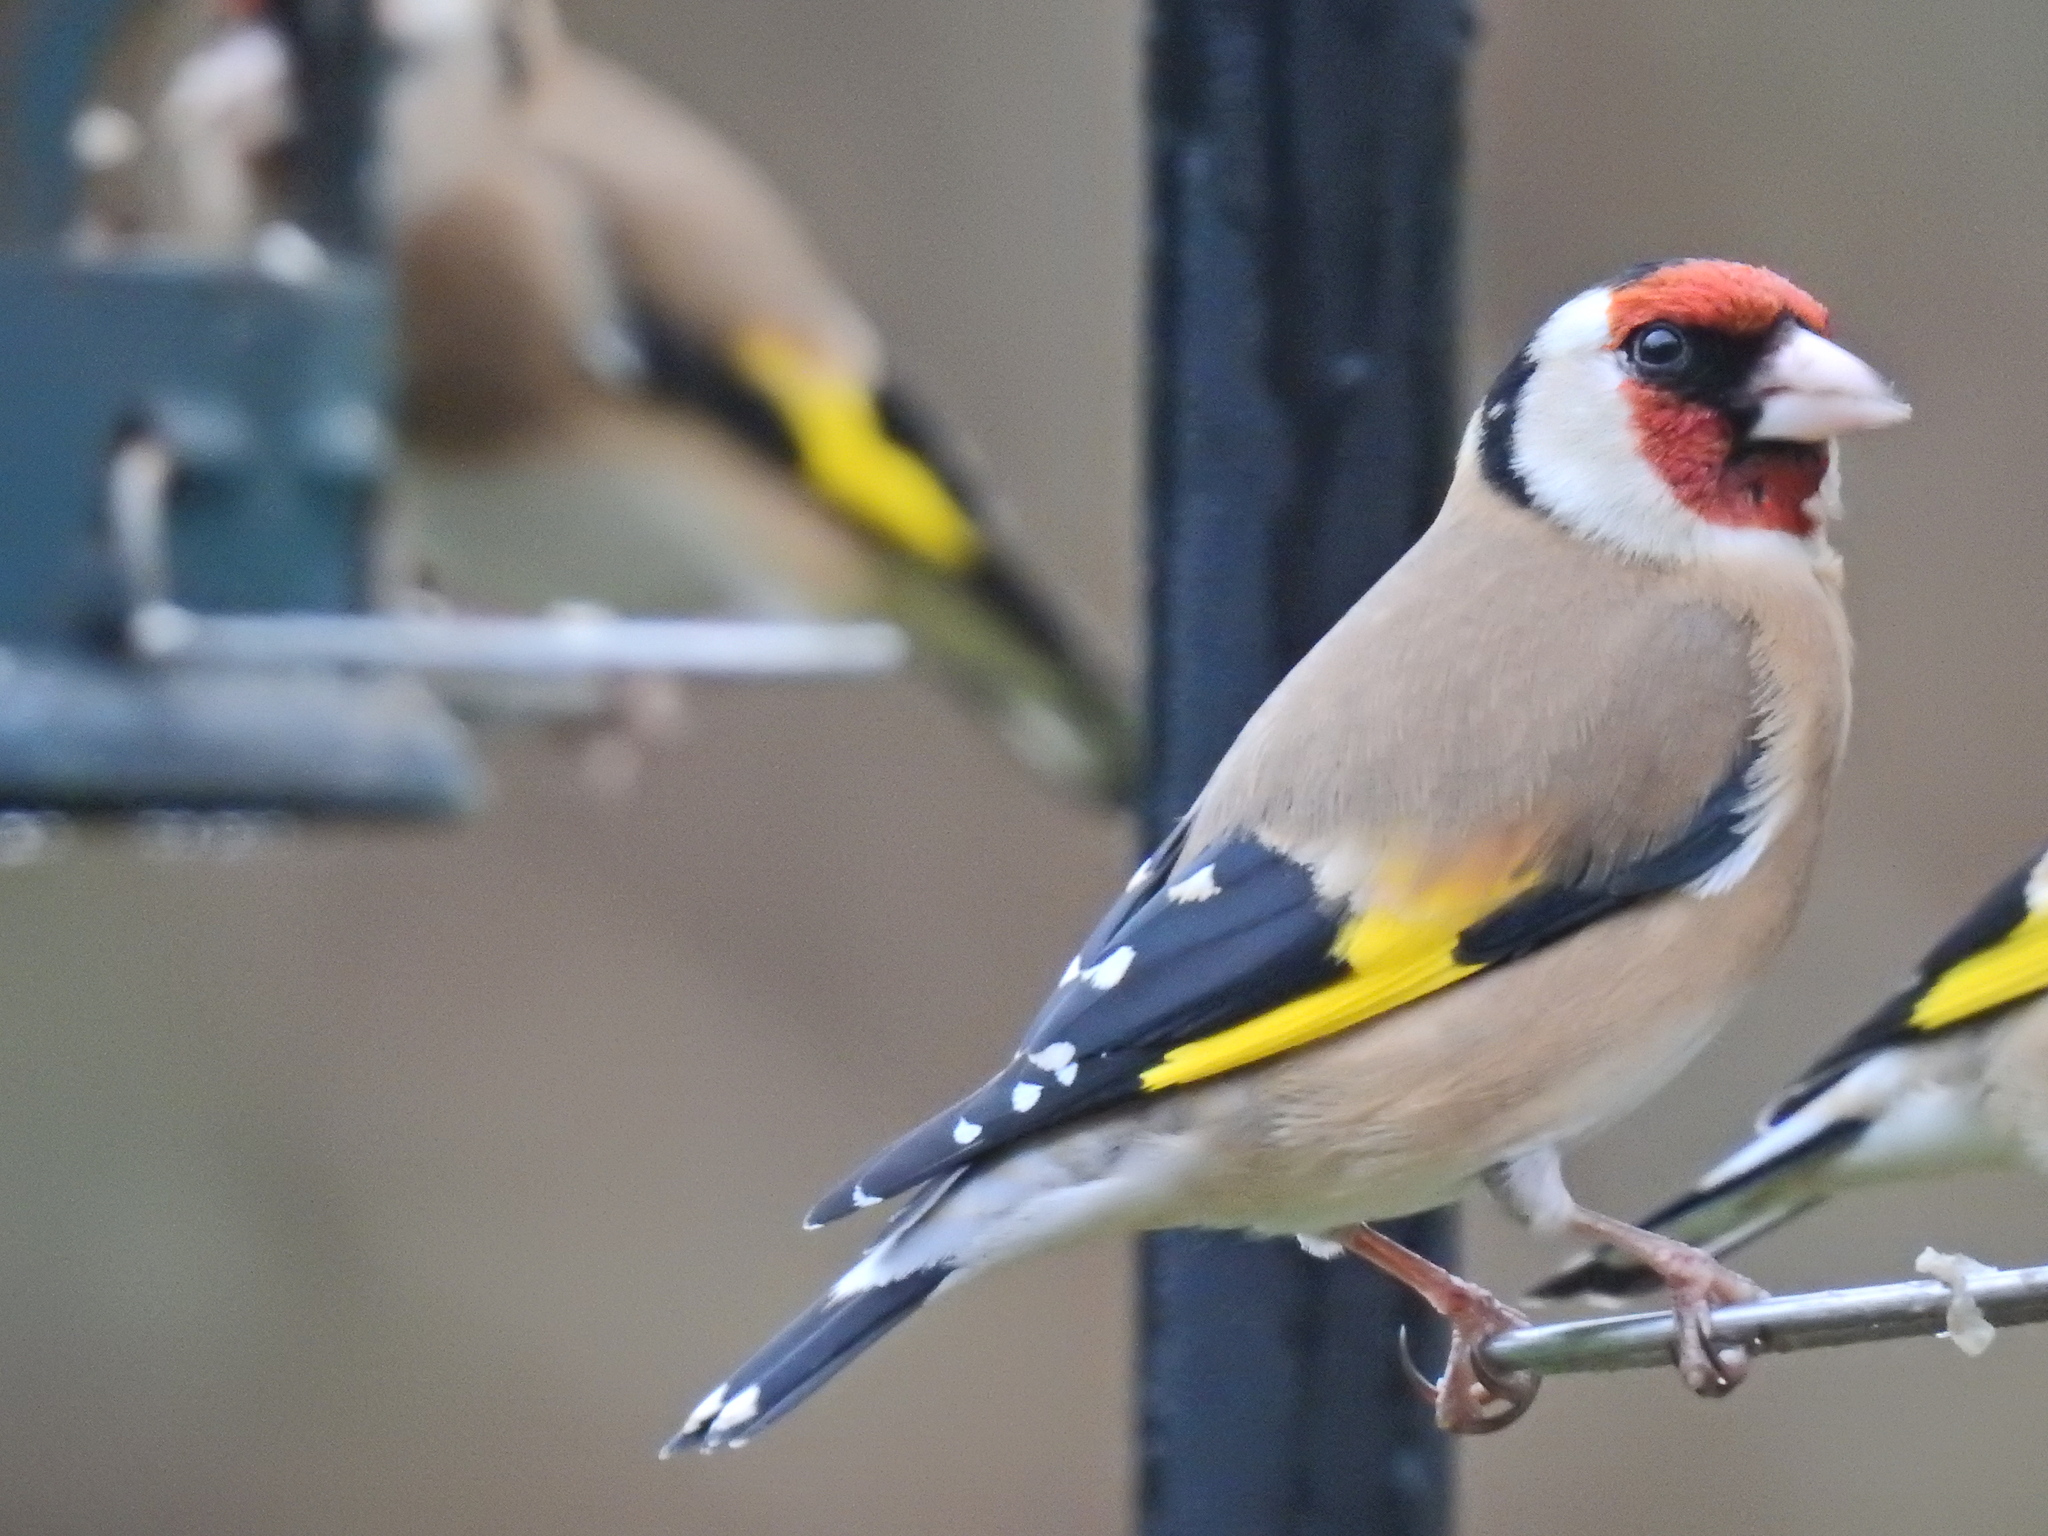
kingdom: Animalia
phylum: Chordata
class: Aves
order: Passeriformes
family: Fringillidae
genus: Carduelis
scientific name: Carduelis carduelis
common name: European goldfinch
